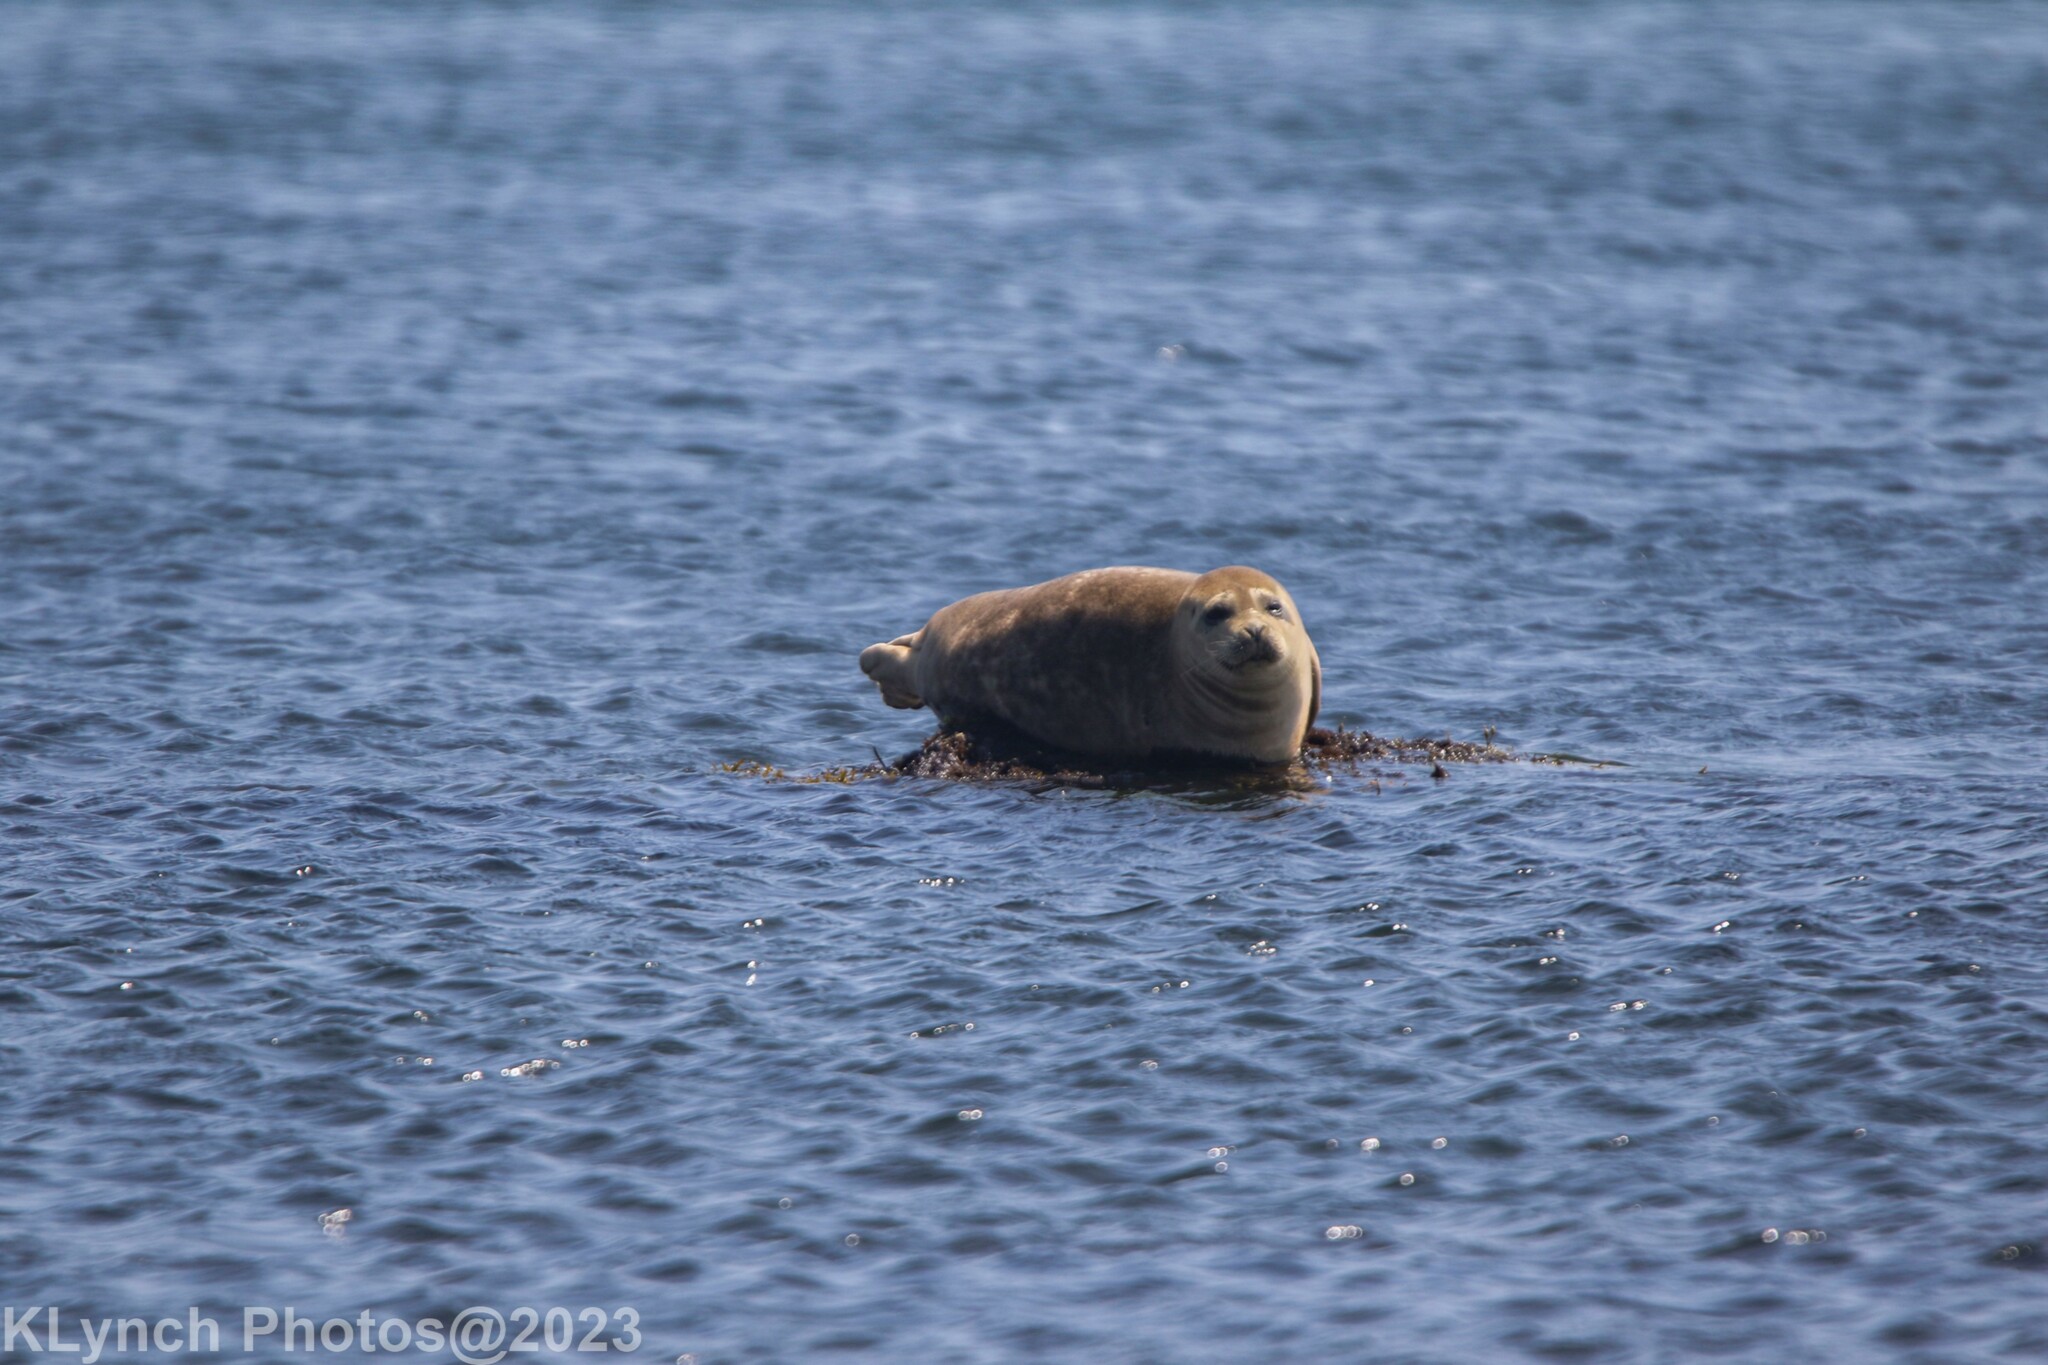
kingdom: Animalia
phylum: Chordata
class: Mammalia
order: Carnivora
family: Phocidae
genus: Phoca
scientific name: Phoca vitulina
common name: Harbor seal
